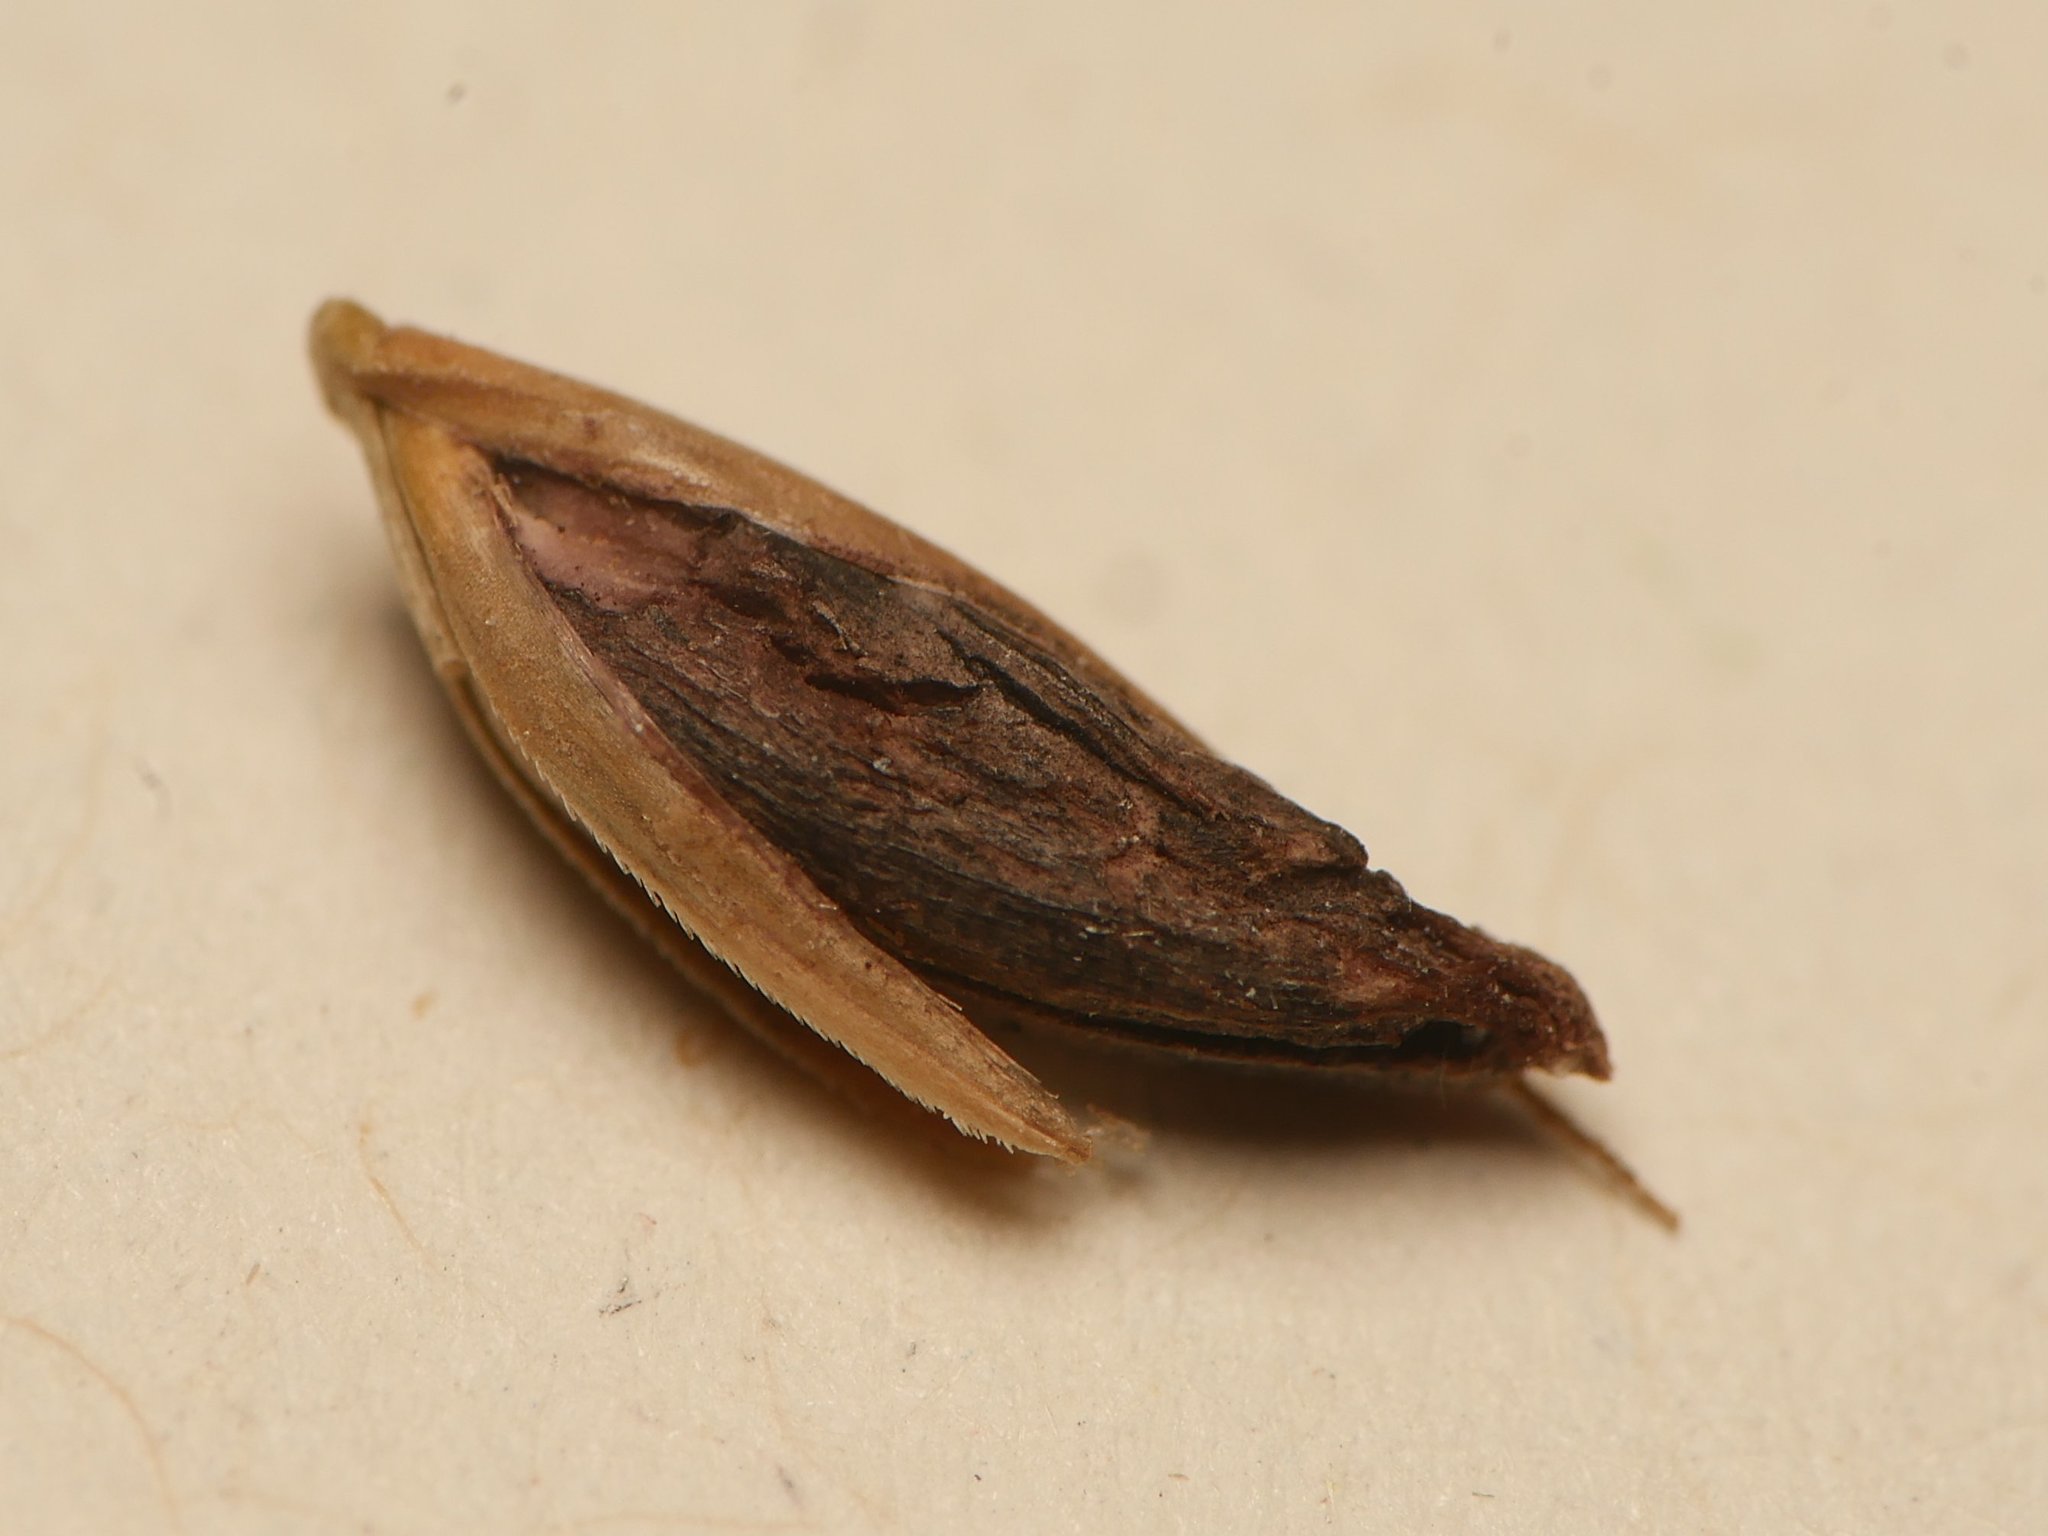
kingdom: Fungi
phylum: Ascomycota
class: Sordariomycetes
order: Hypocreales
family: Clavicipitaceae
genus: Claviceps
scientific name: Claviceps purpurea
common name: Rye ergot
